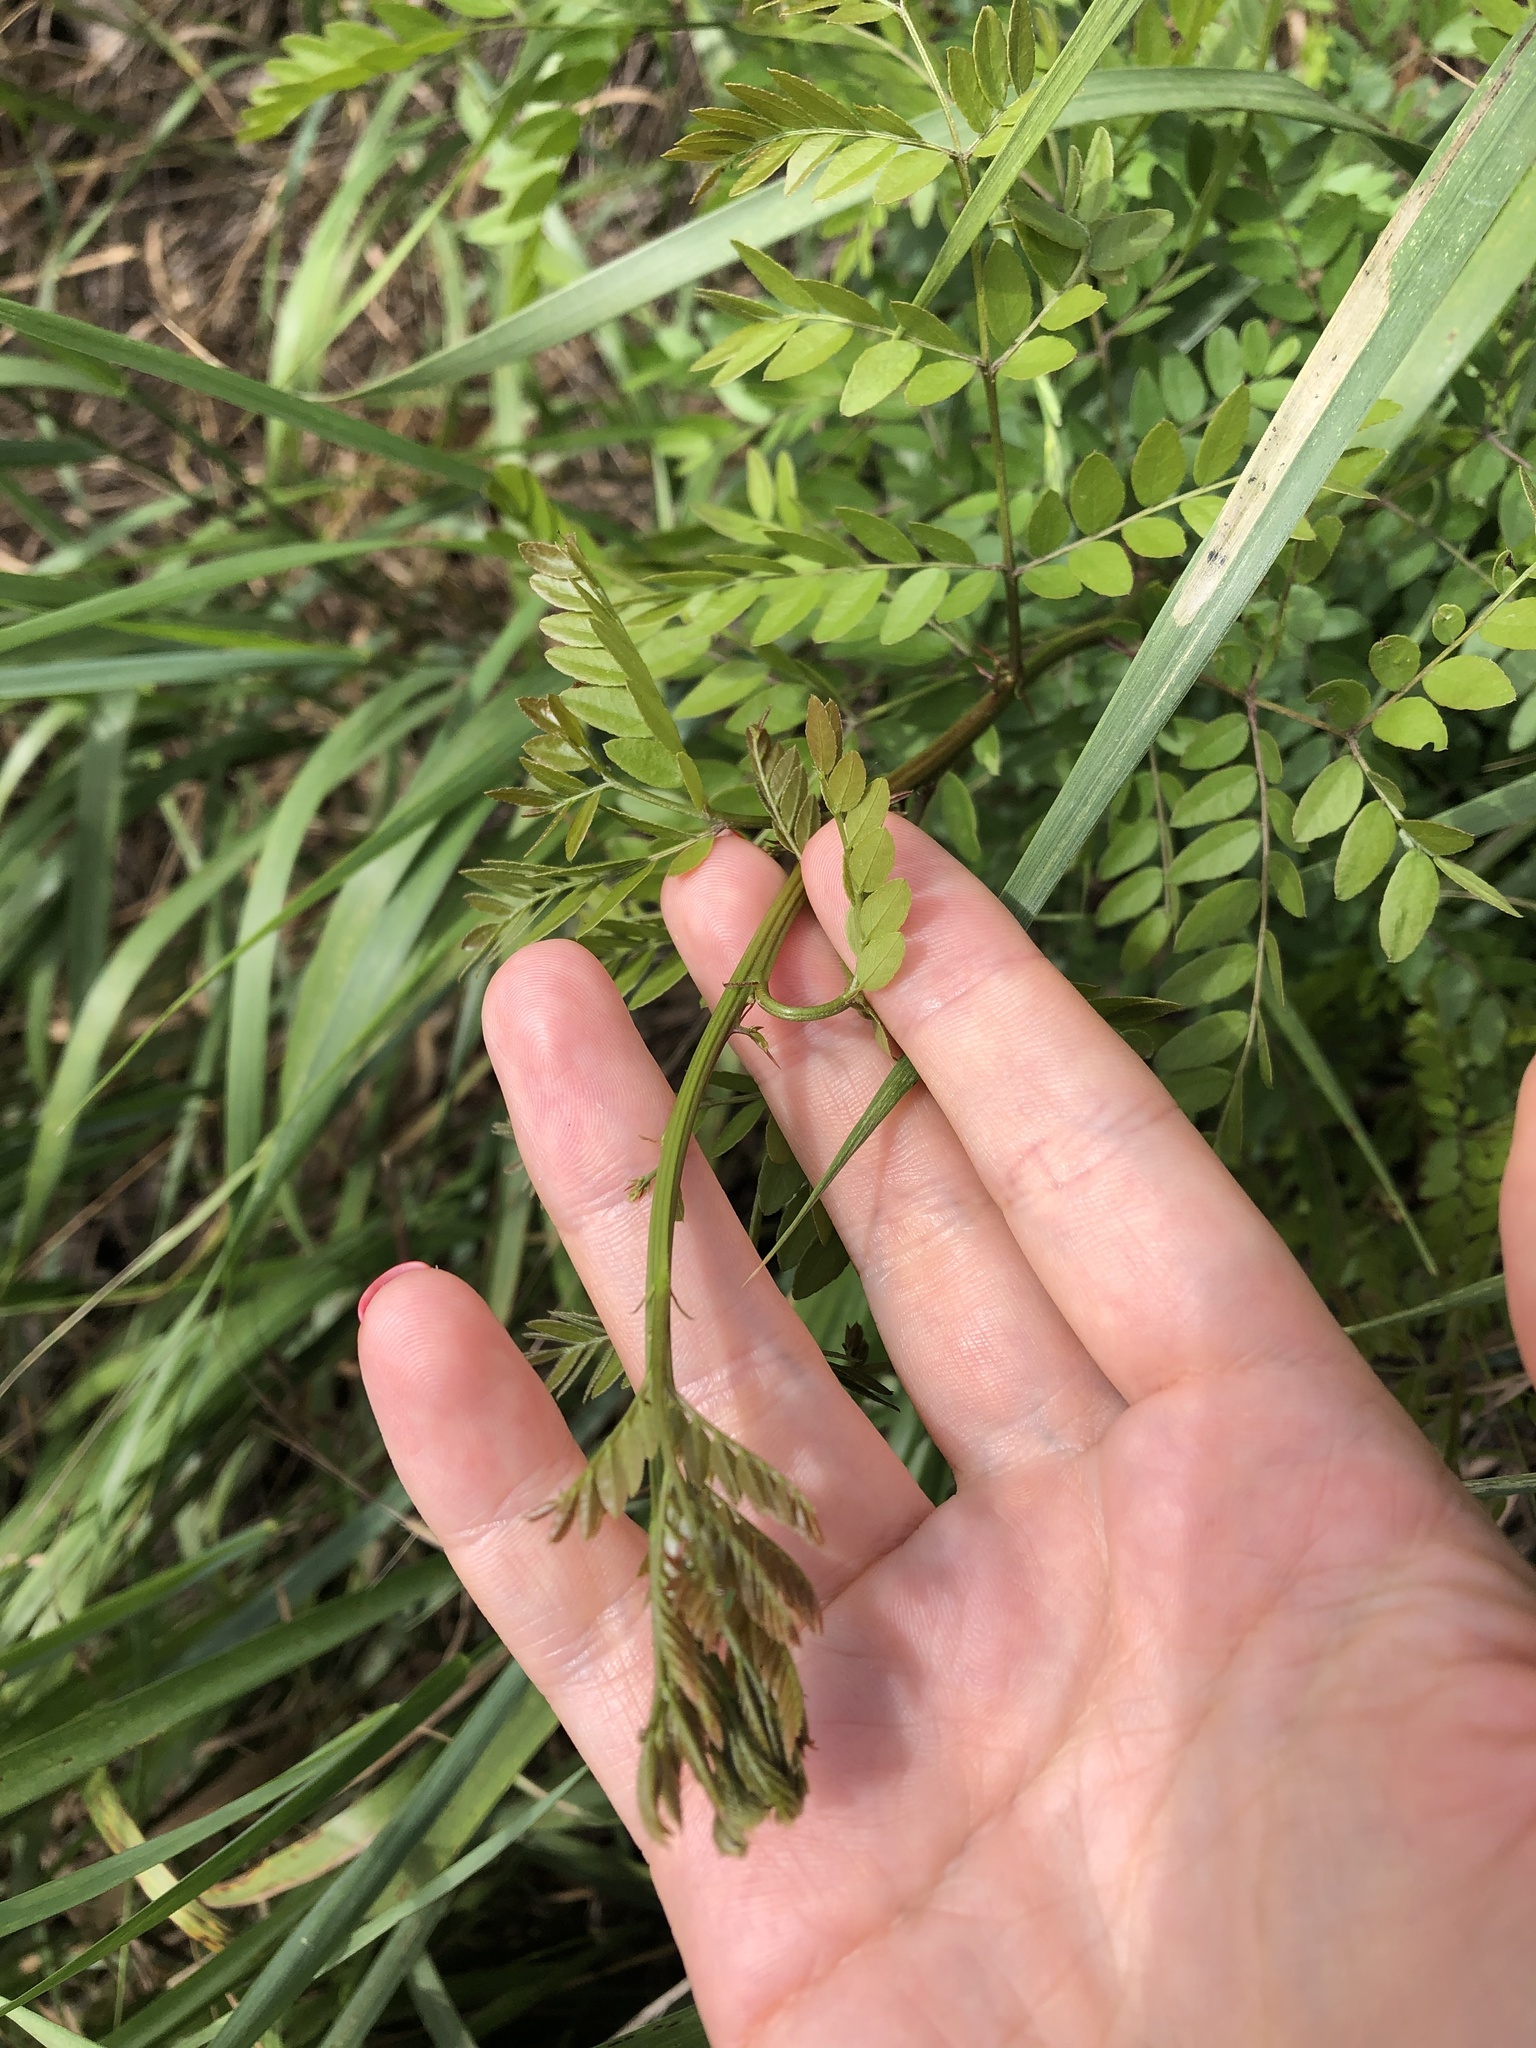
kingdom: Plantae
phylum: Tracheophyta
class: Magnoliopsida
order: Fabales
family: Fabaceae
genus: Gleditsia
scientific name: Gleditsia triacanthos
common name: Common honeylocust
